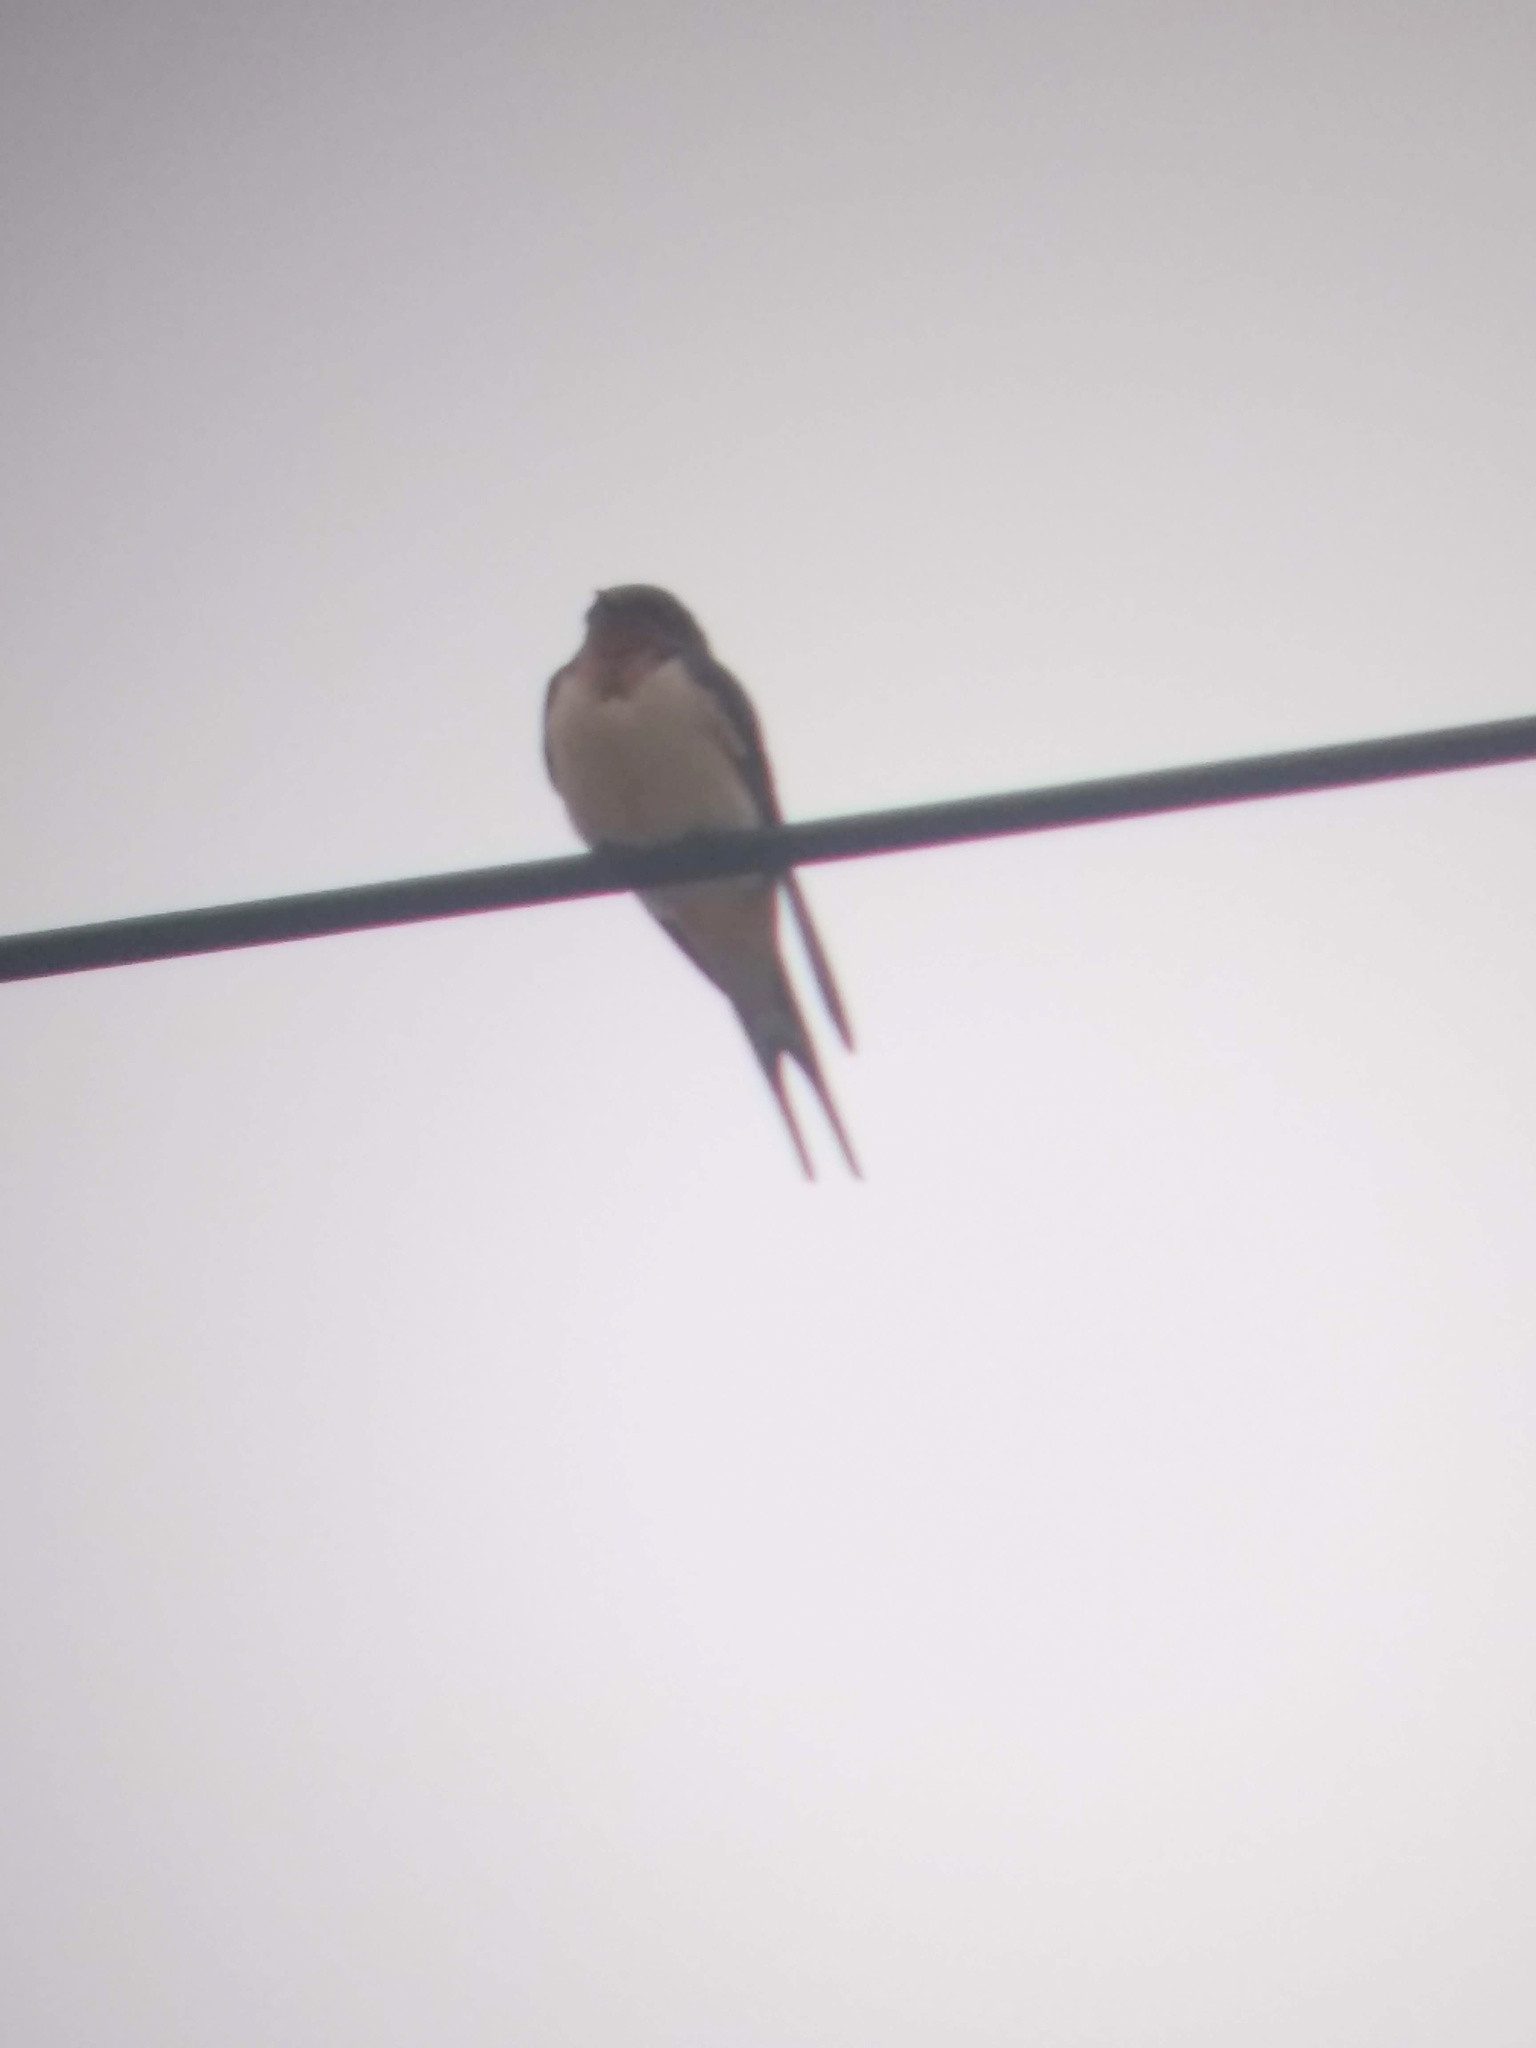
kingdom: Animalia
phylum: Chordata
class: Aves
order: Passeriformes
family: Hirundinidae
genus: Hirundo
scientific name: Hirundo rustica
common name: Barn swallow
